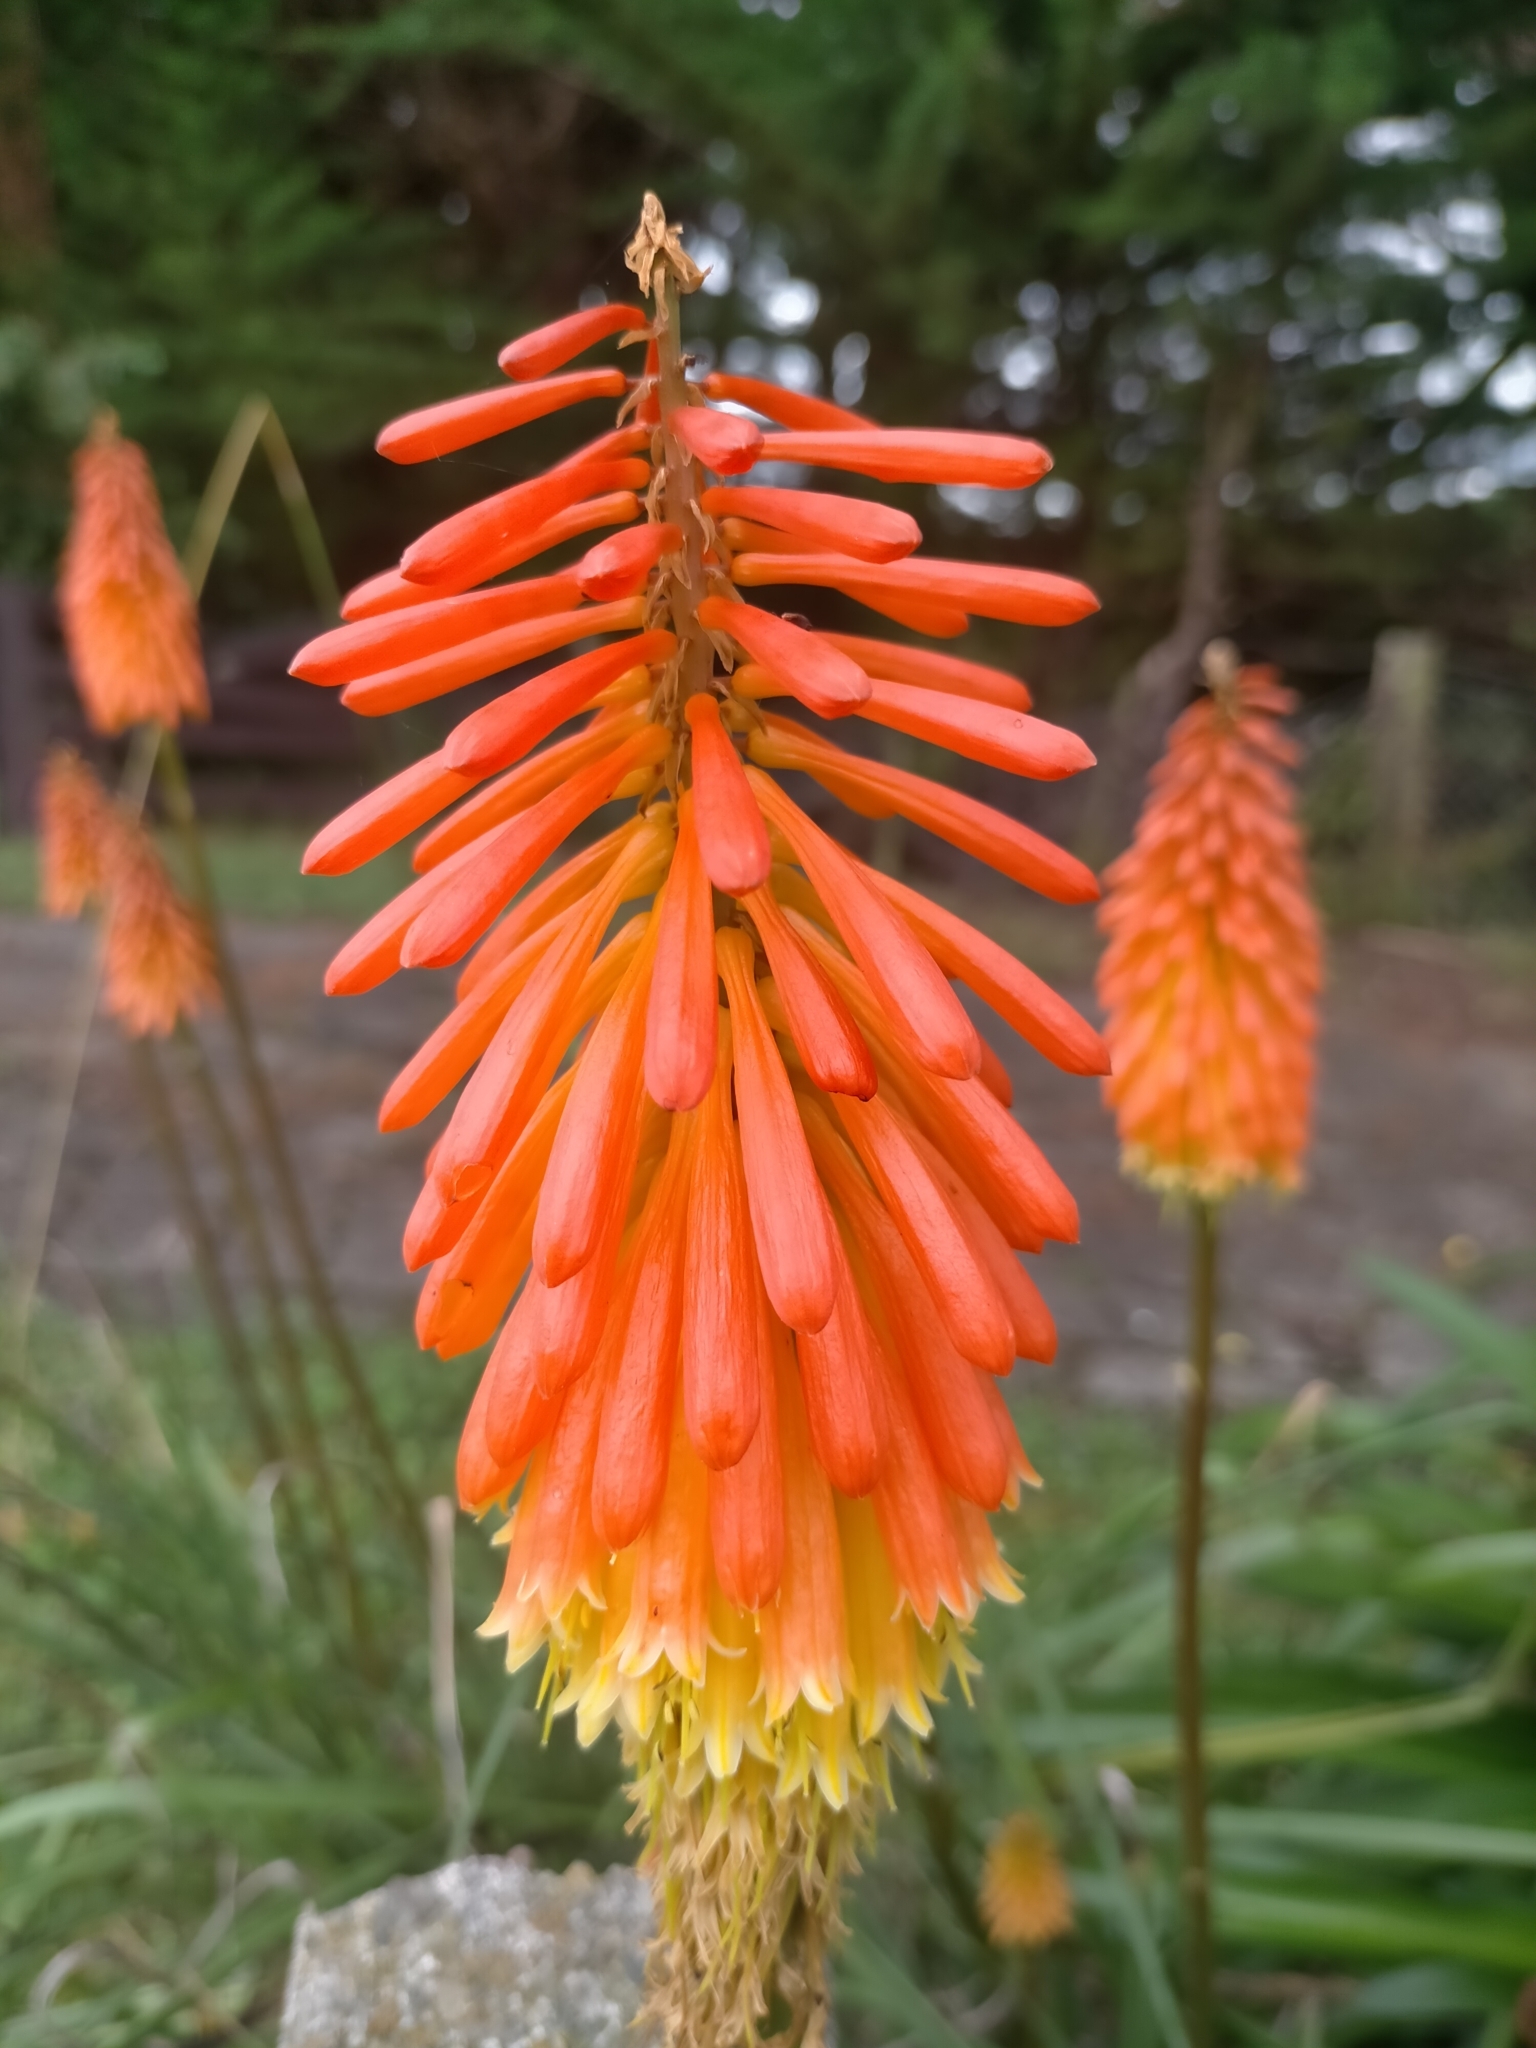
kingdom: Plantae
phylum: Tracheophyta
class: Liliopsida
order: Asparagales
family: Asphodelaceae
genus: Kniphofia
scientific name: Kniphofia uvaria
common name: Red-hot-poker
